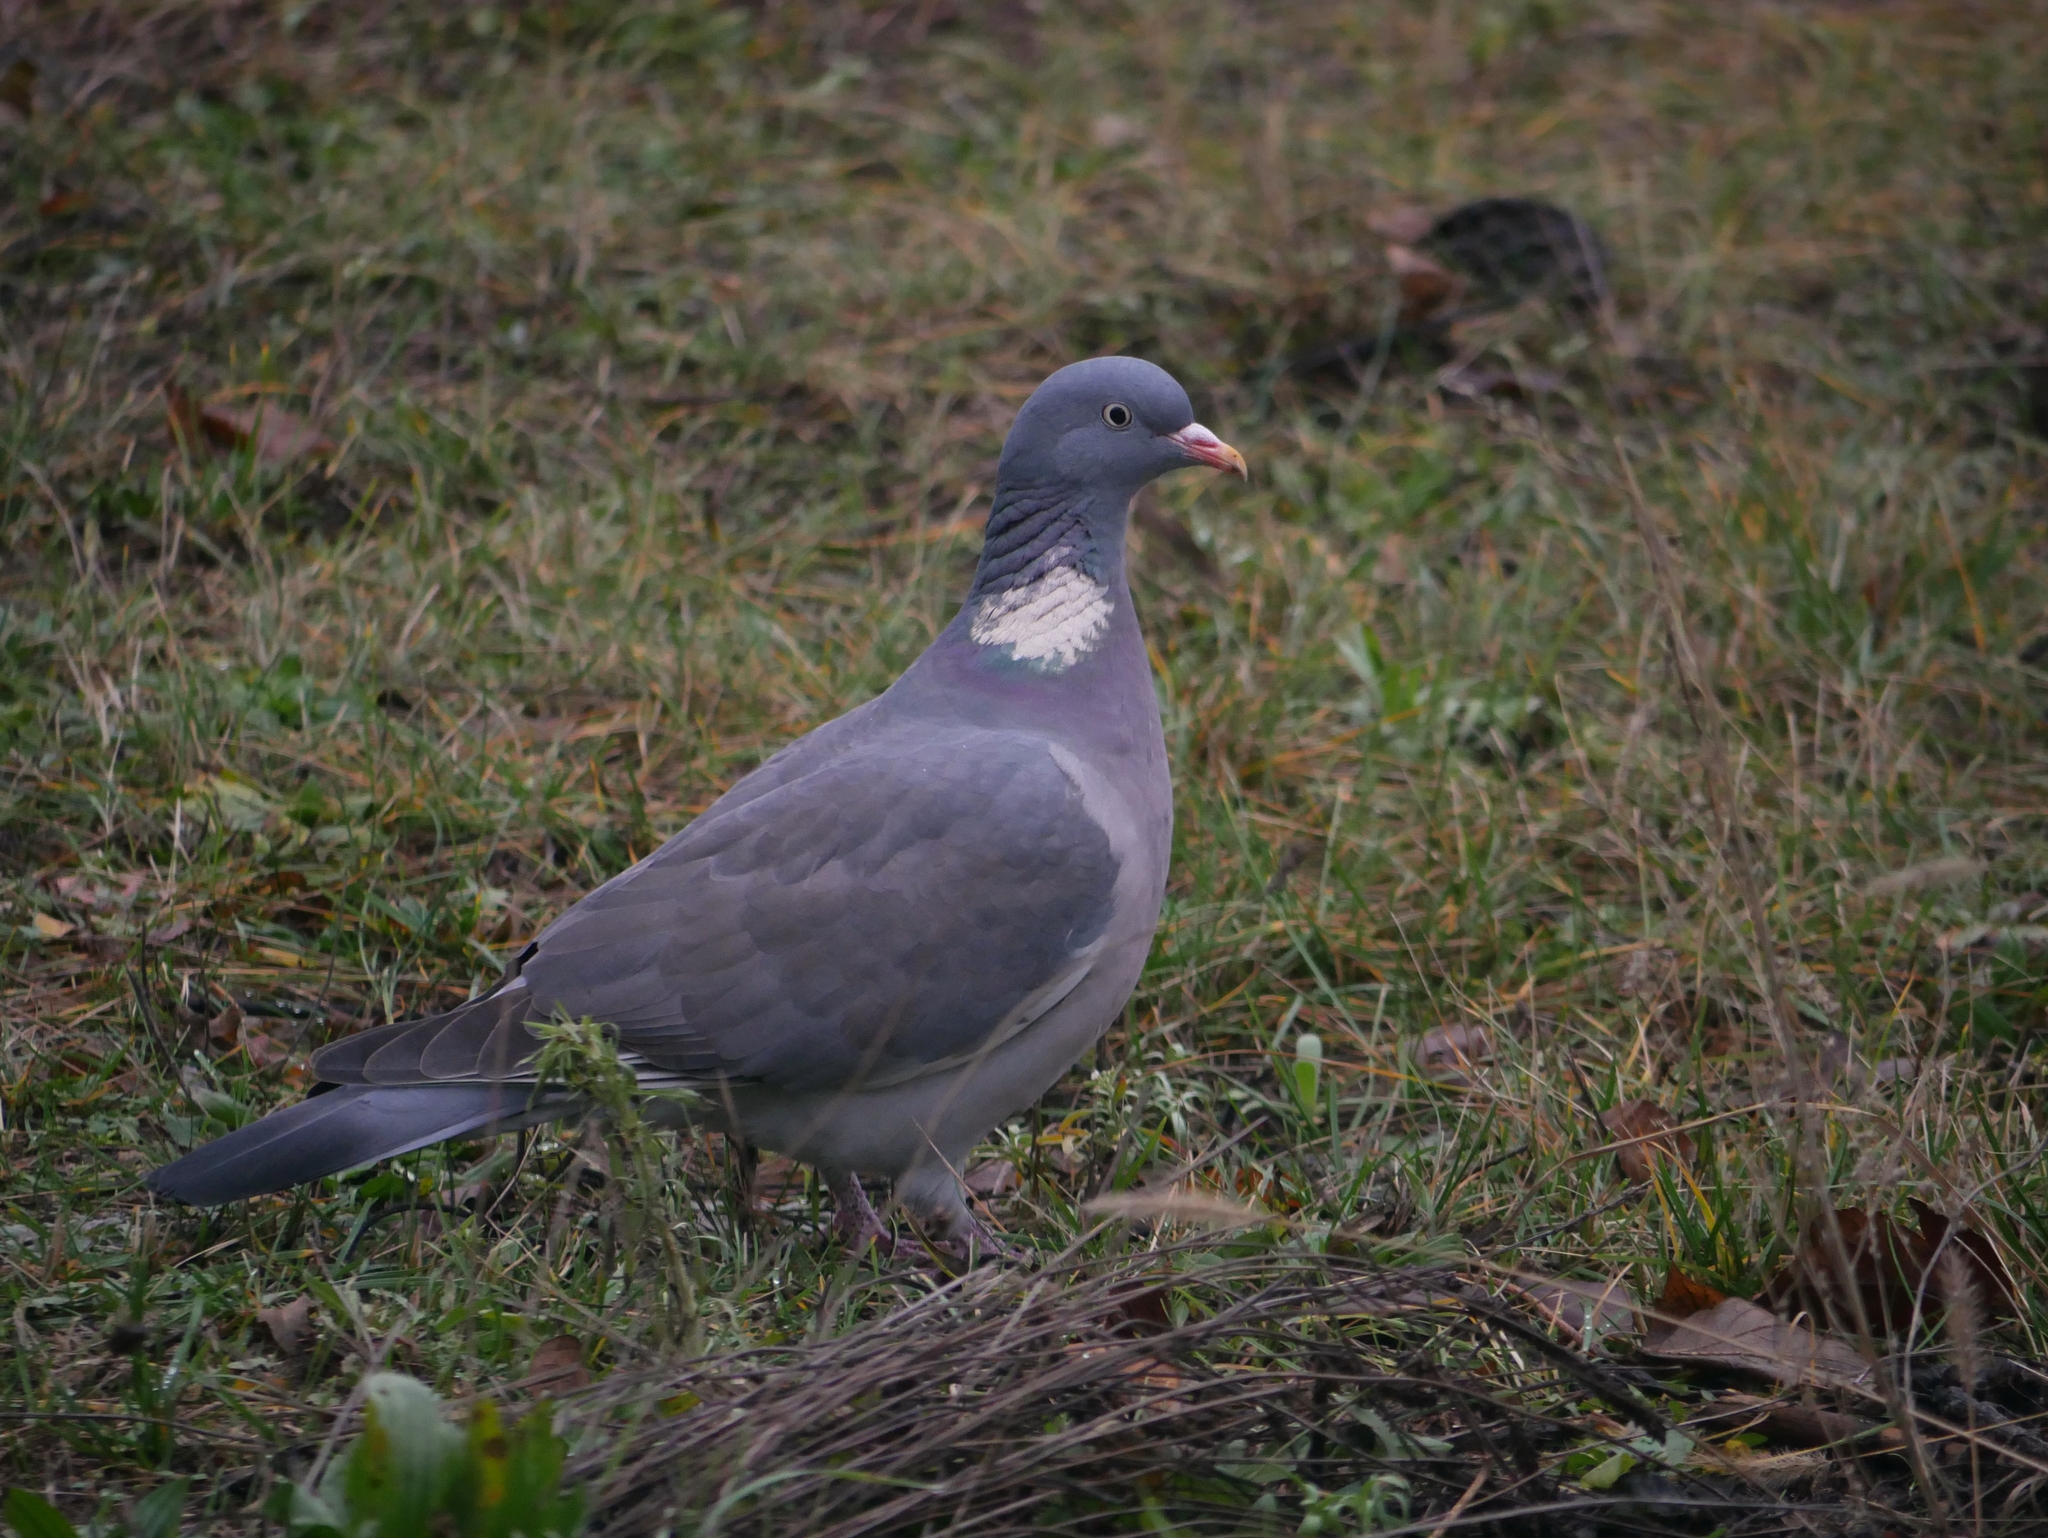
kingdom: Animalia
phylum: Chordata
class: Aves
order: Columbiformes
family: Columbidae
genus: Columba
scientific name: Columba palumbus
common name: Common wood pigeon
